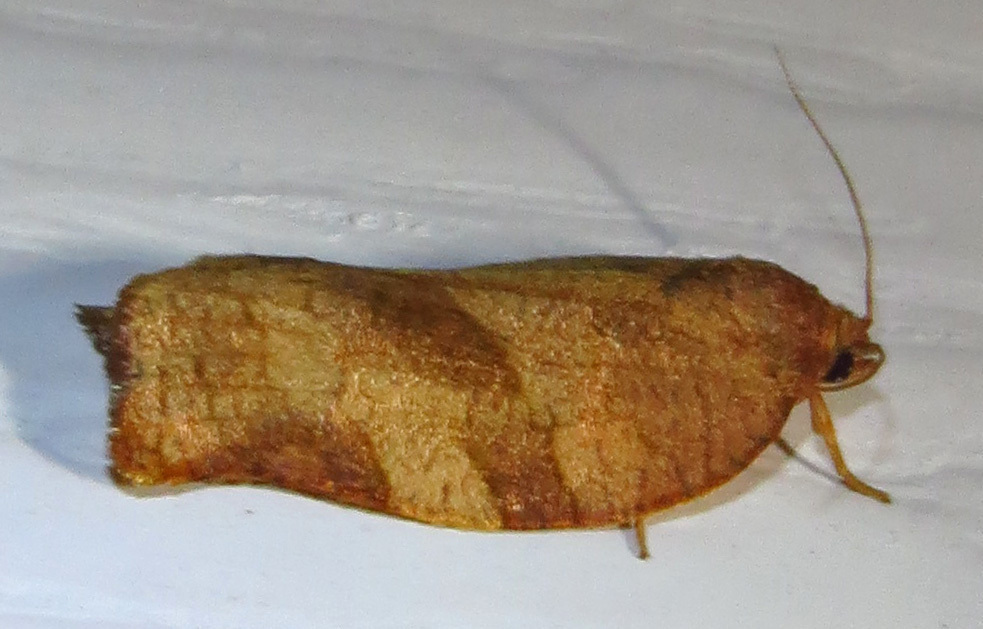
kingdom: Animalia
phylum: Arthropoda
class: Insecta
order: Lepidoptera
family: Tortricidae
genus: Choristoneura
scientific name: Choristoneura rosaceana
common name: Oblique-banded leafroller moth
